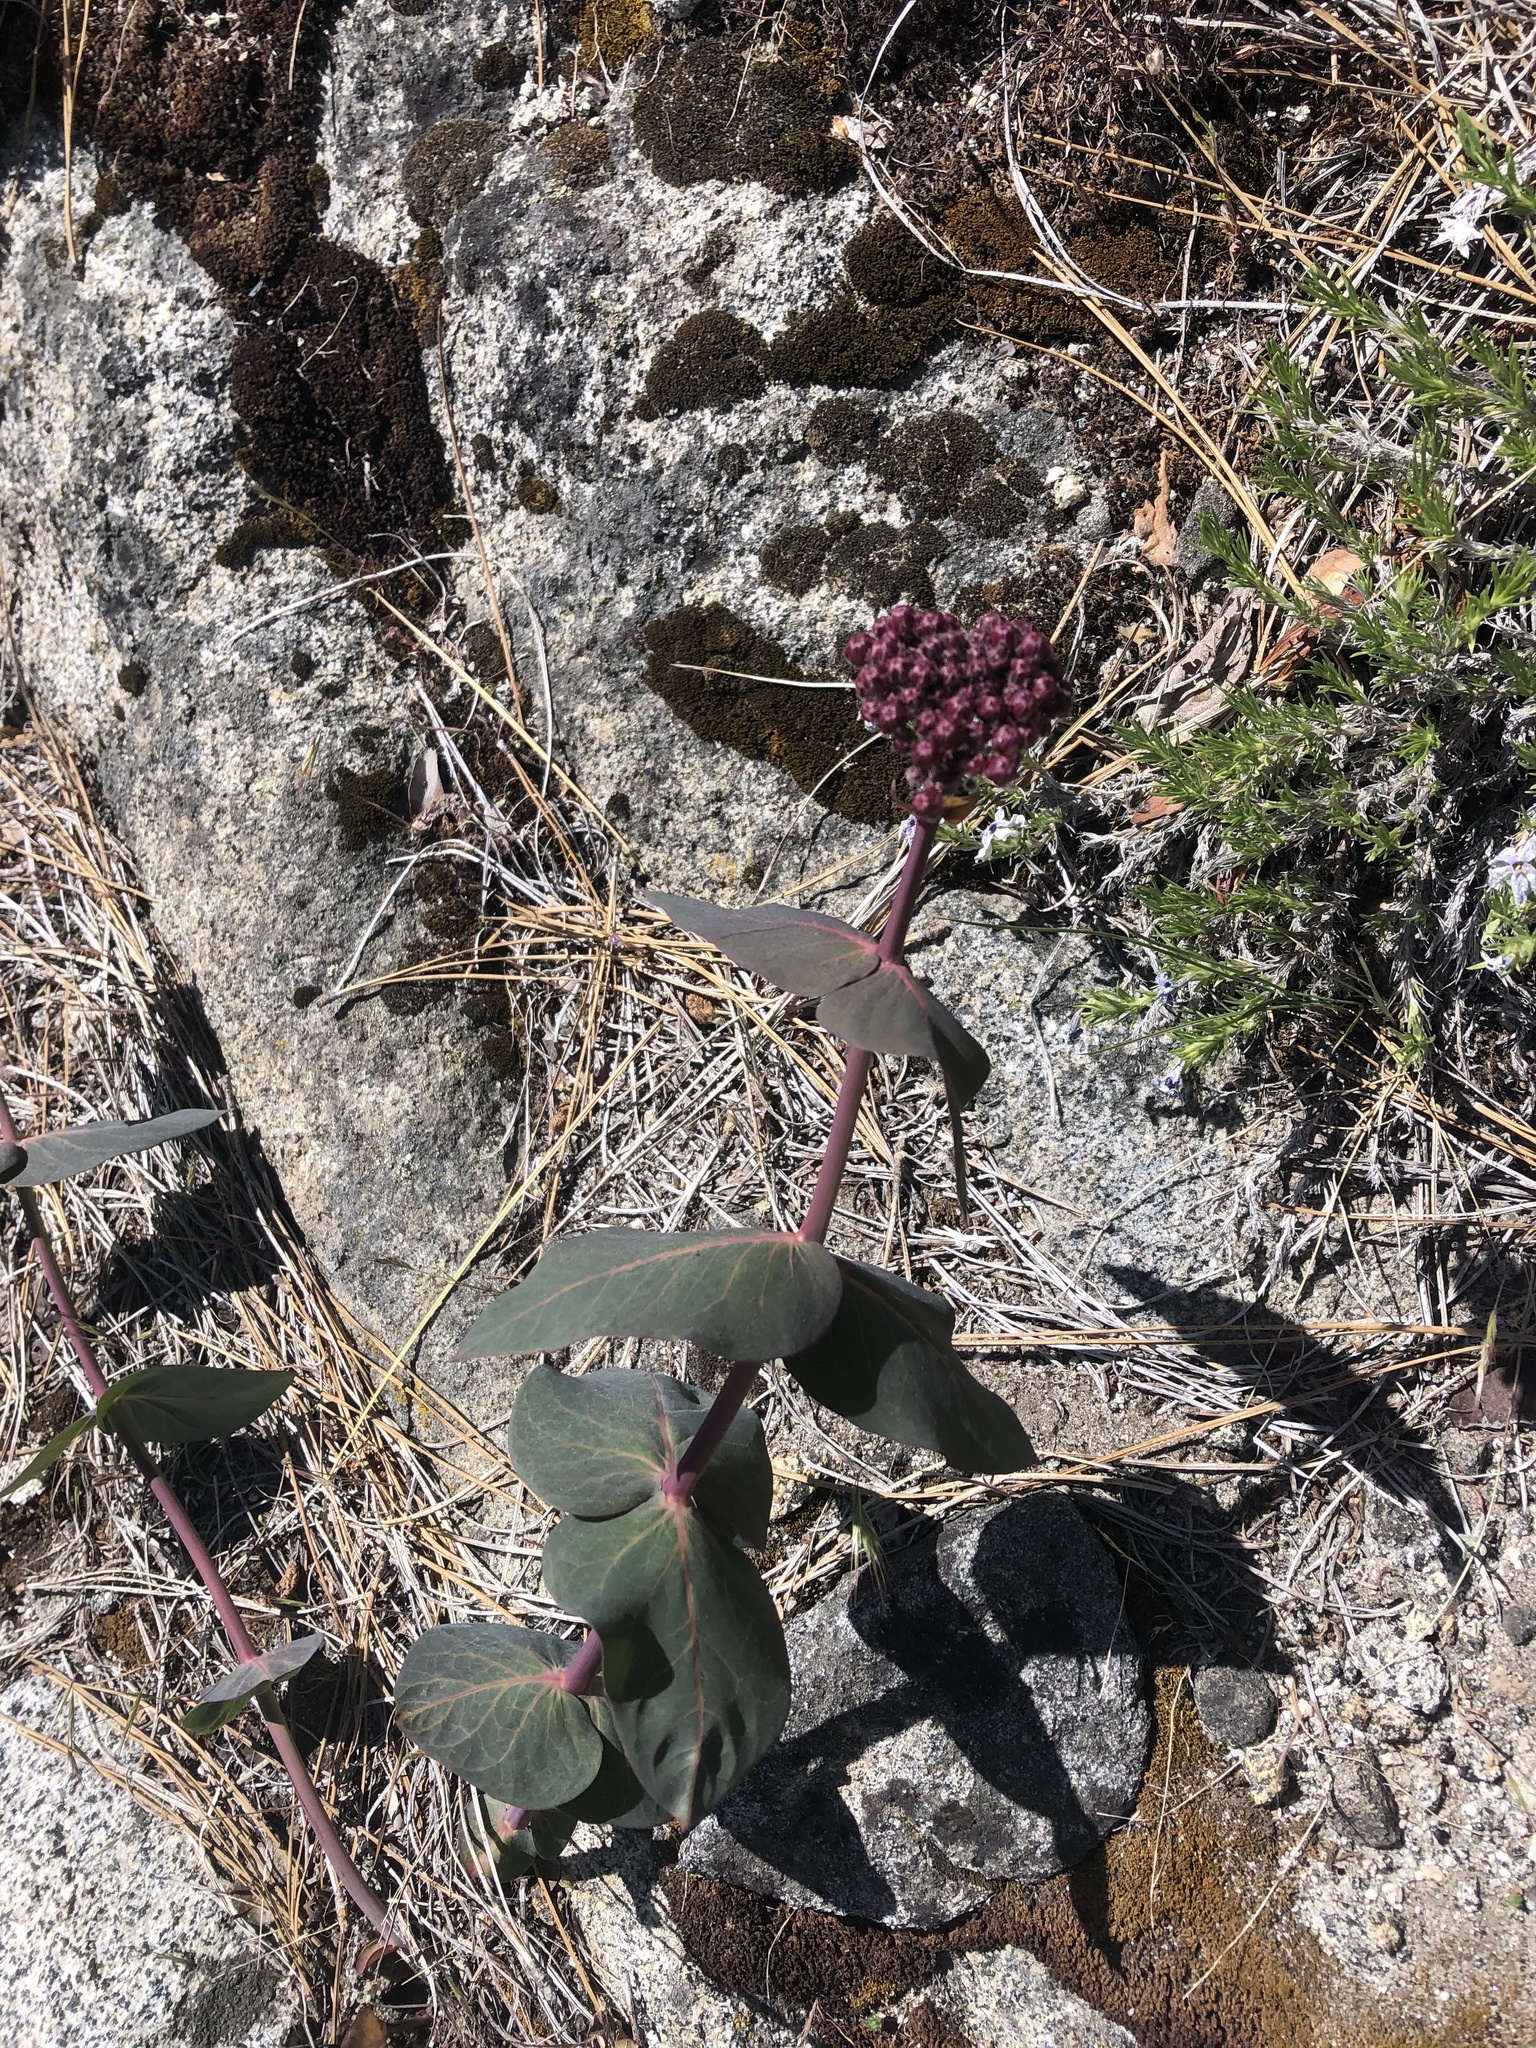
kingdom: Plantae
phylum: Tracheophyta
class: Magnoliopsida
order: Gentianales
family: Apocynaceae
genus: Asclepias
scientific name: Asclepias cordifolia
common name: Purple milkweed
